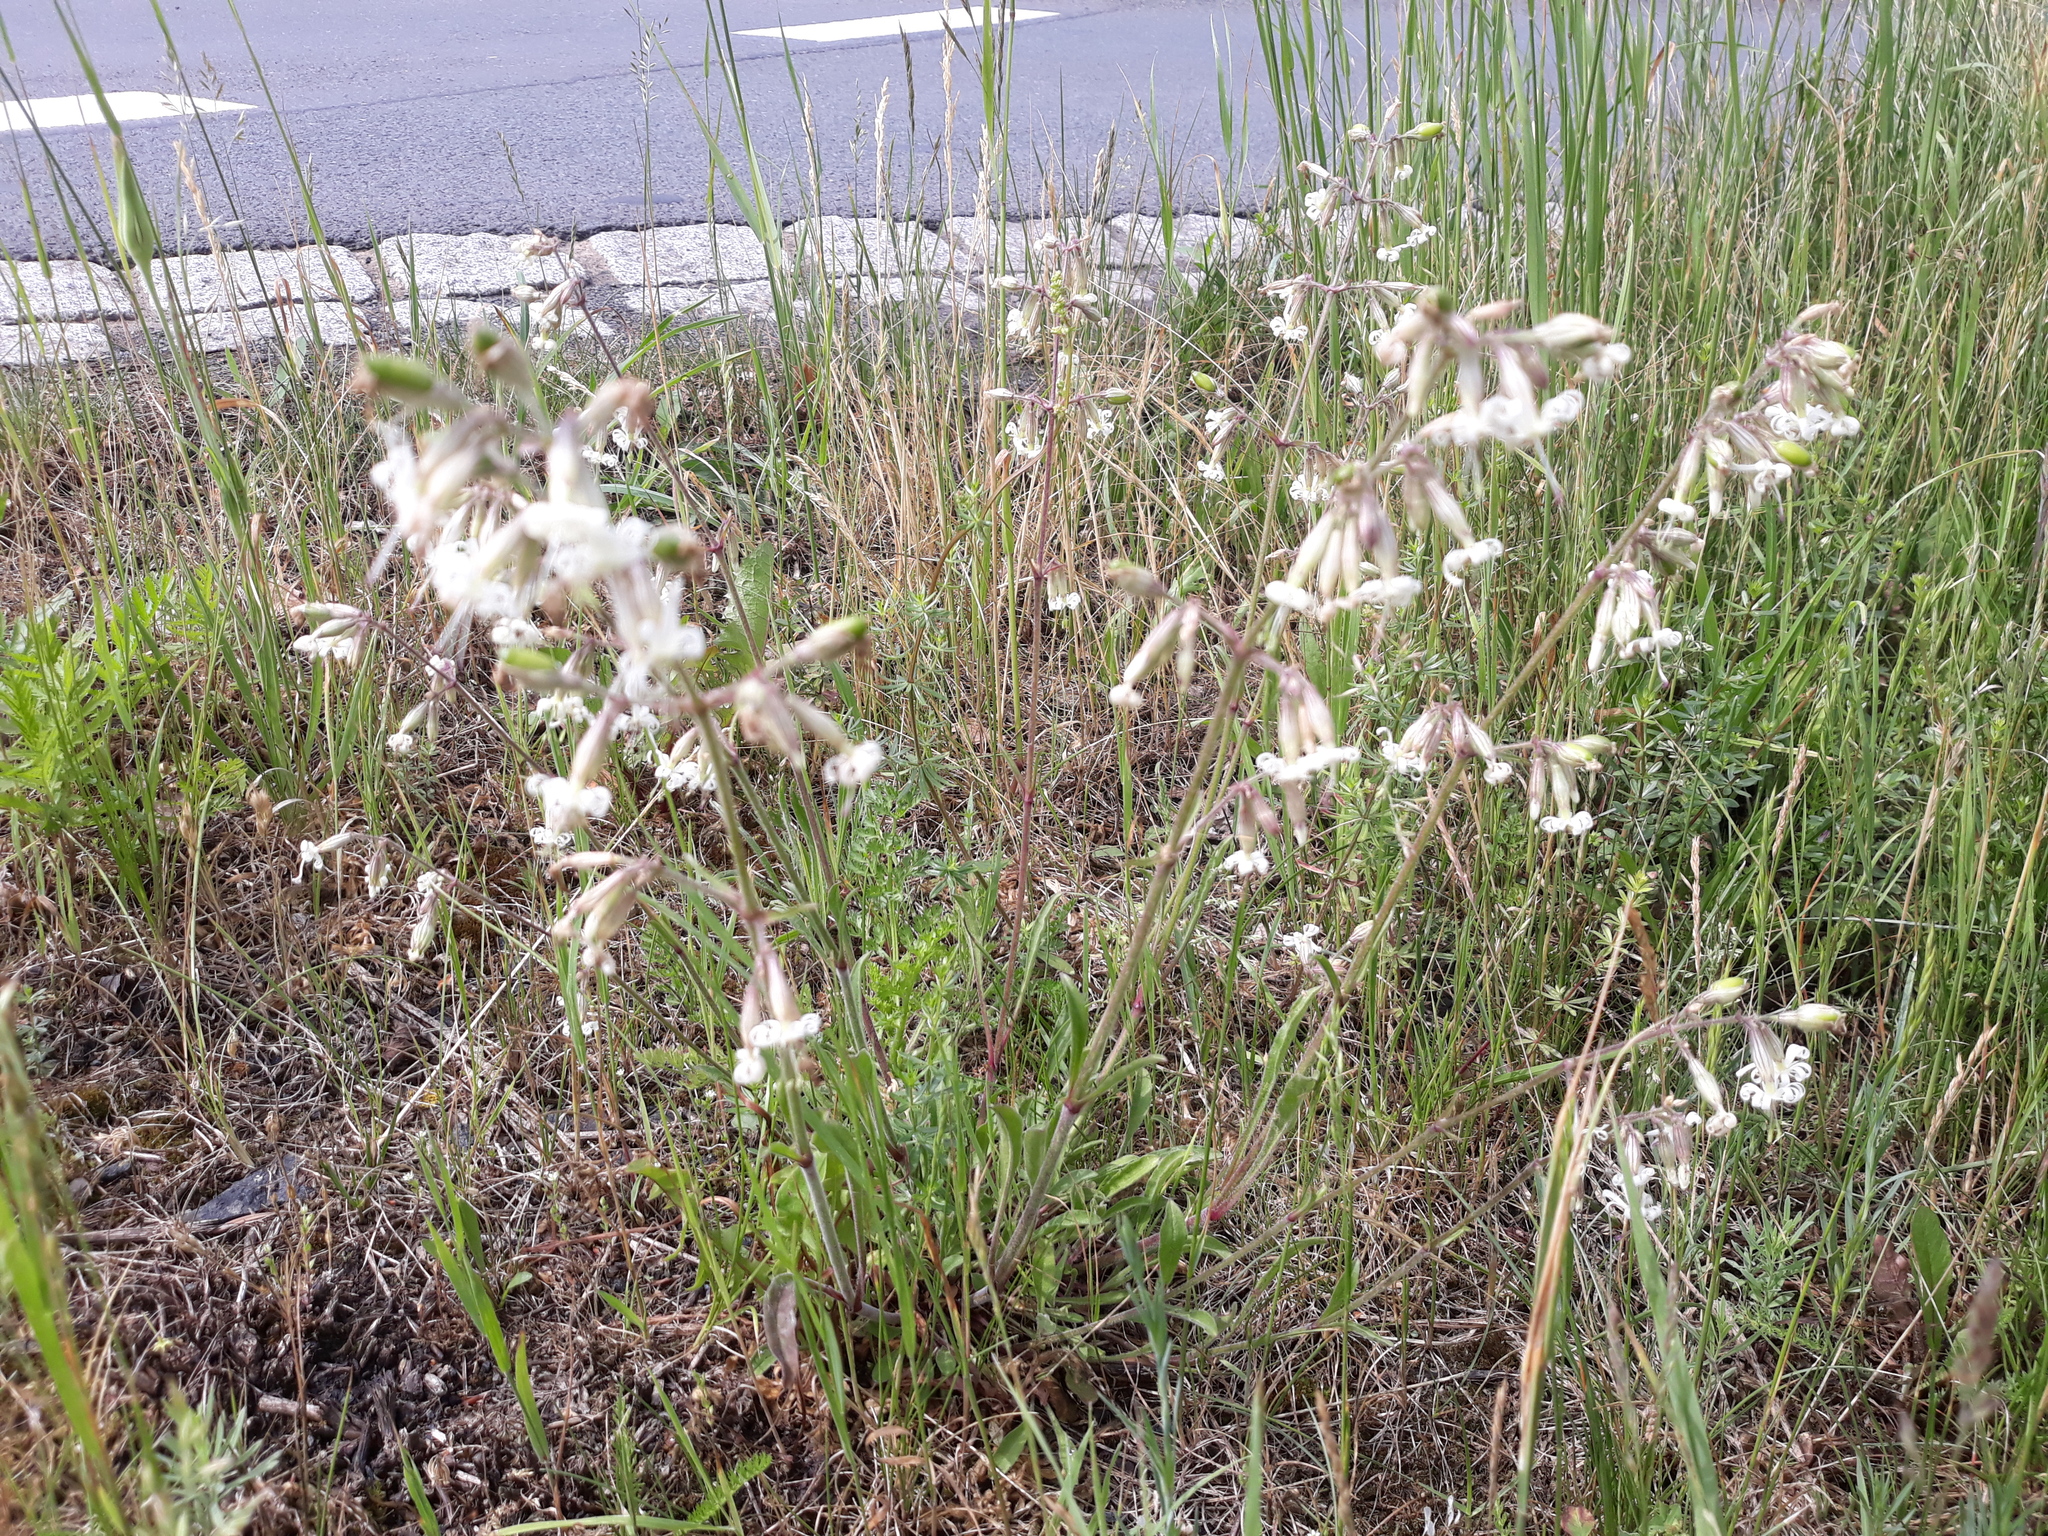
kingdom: Plantae
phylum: Tracheophyta
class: Magnoliopsida
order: Caryophyllales
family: Caryophyllaceae
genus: Silene
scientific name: Silene nutans
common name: Nottingham catchfly
